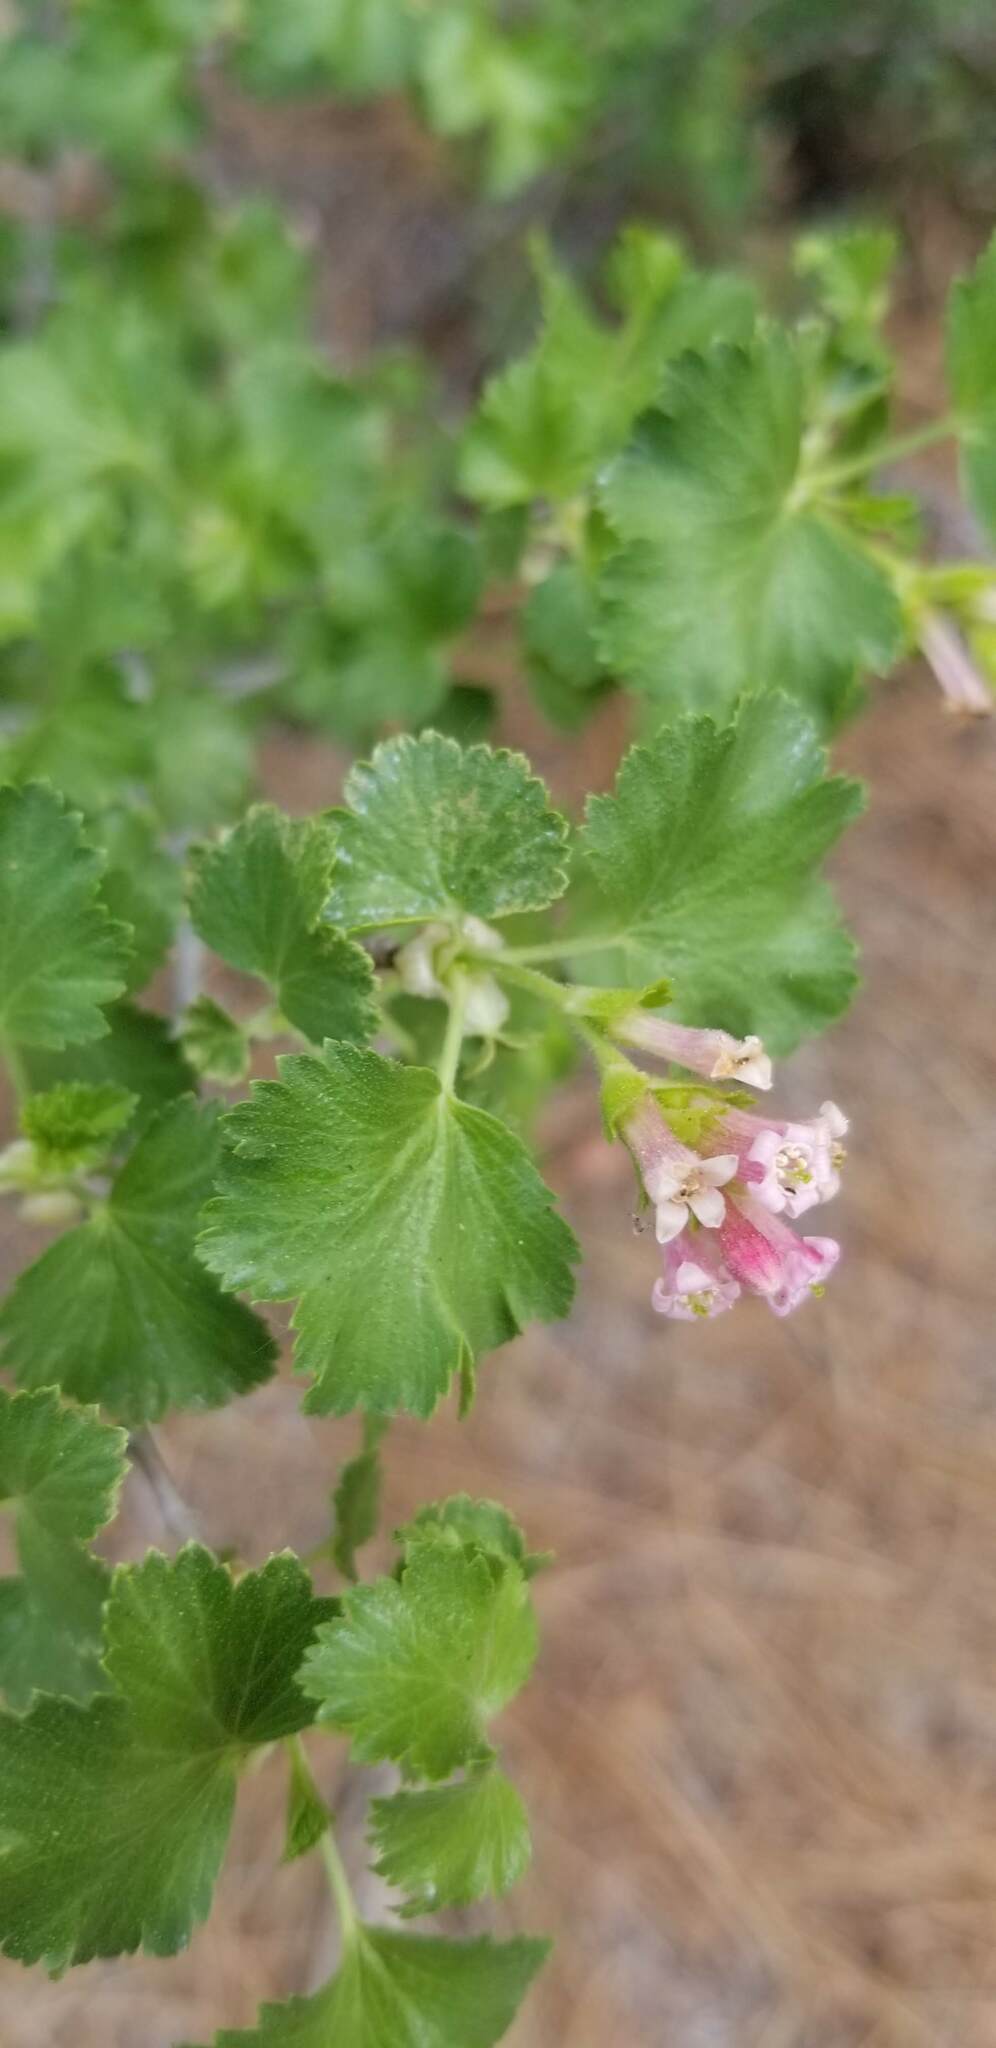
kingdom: Plantae
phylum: Tracheophyta
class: Magnoliopsida
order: Saxifragales
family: Grossulariaceae
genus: Ribes
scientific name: Ribes cereum
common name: Wax currant
